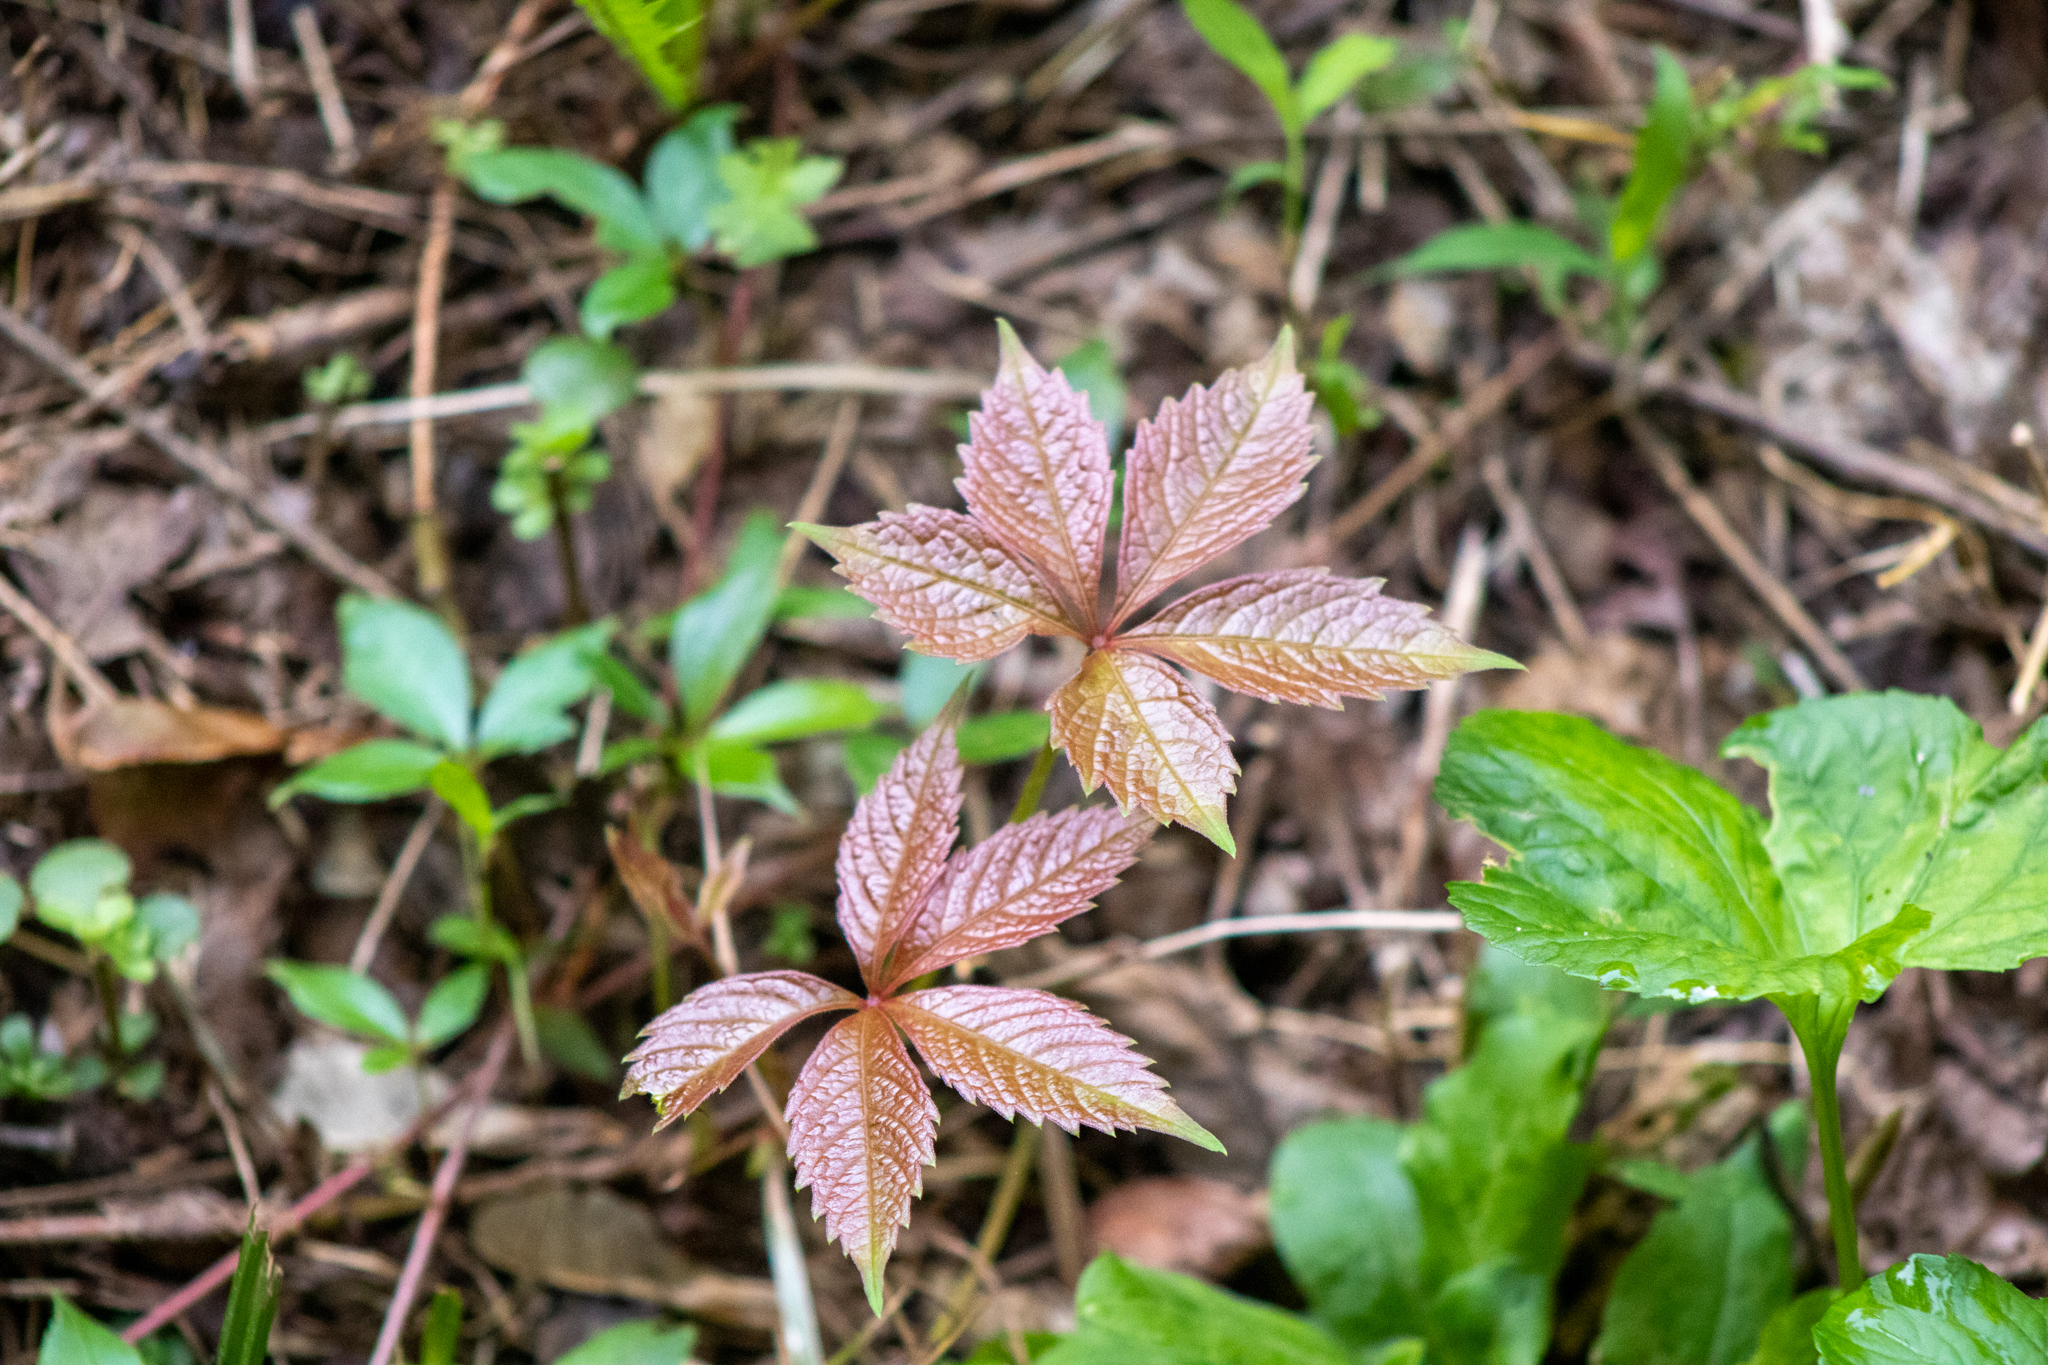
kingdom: Plantae
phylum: Tracheophyta
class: Magnoliopsida
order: Vitales
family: Vitaceae
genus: Parthenocissus
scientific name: Parthenocissus quinquefolia
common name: Virginia-creeper
